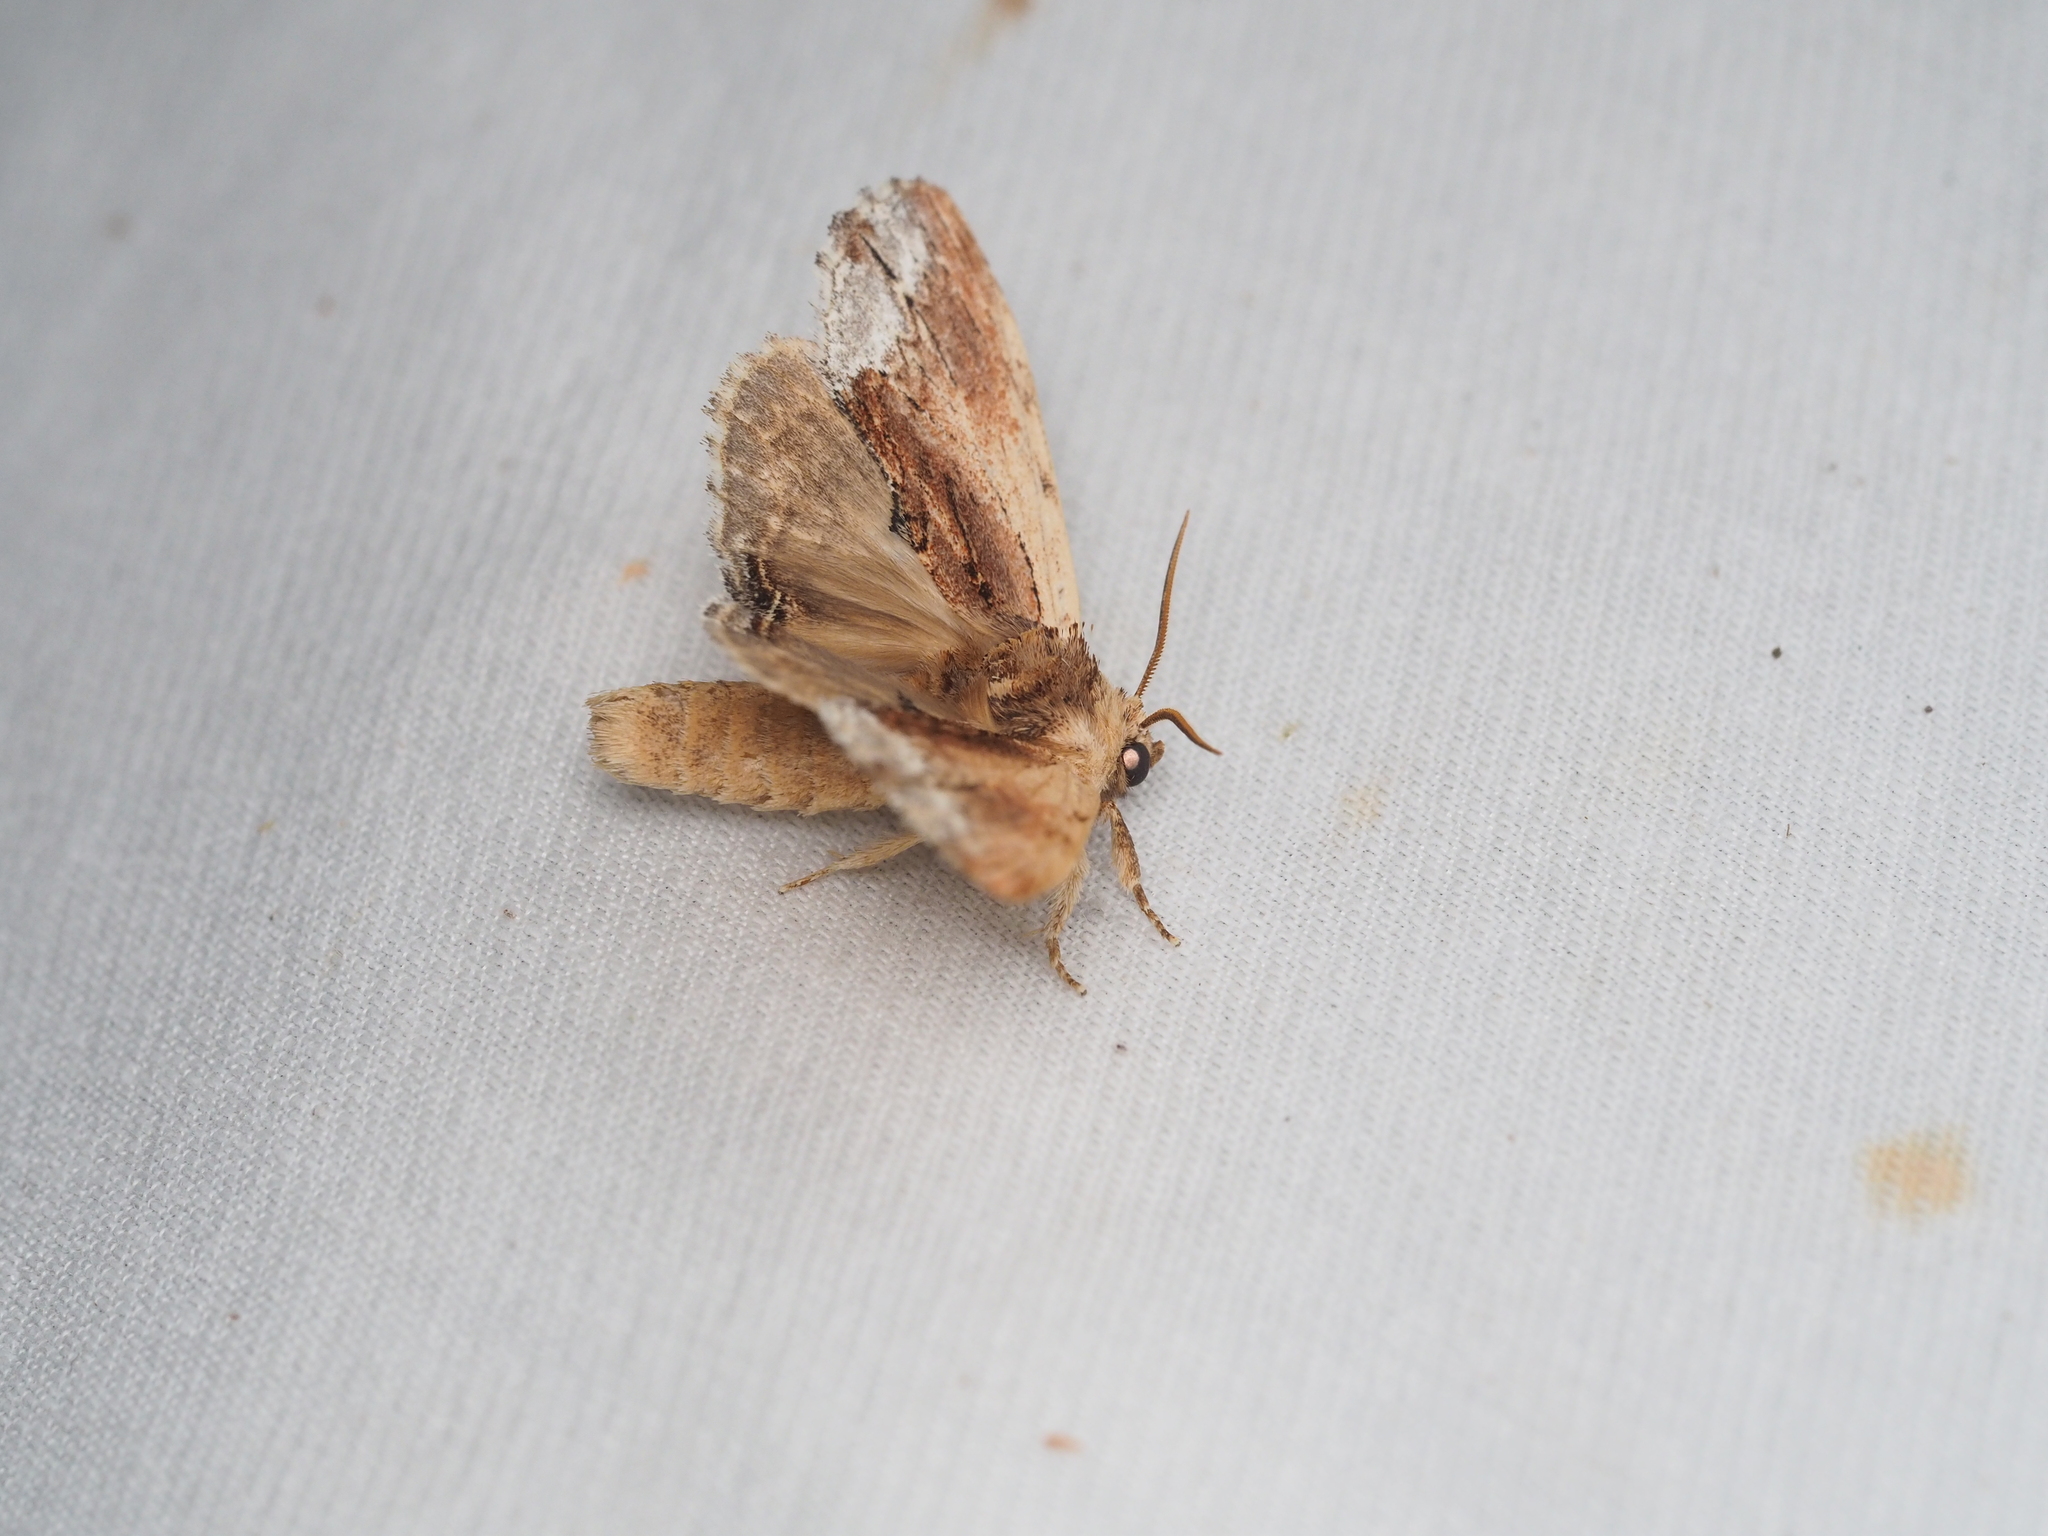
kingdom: Animalia
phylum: Arthropoda
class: Insecta
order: Lepidoptera
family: Notodontidae
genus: Ptilodon
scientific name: Ptilodon cucullina
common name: Maple prominent
